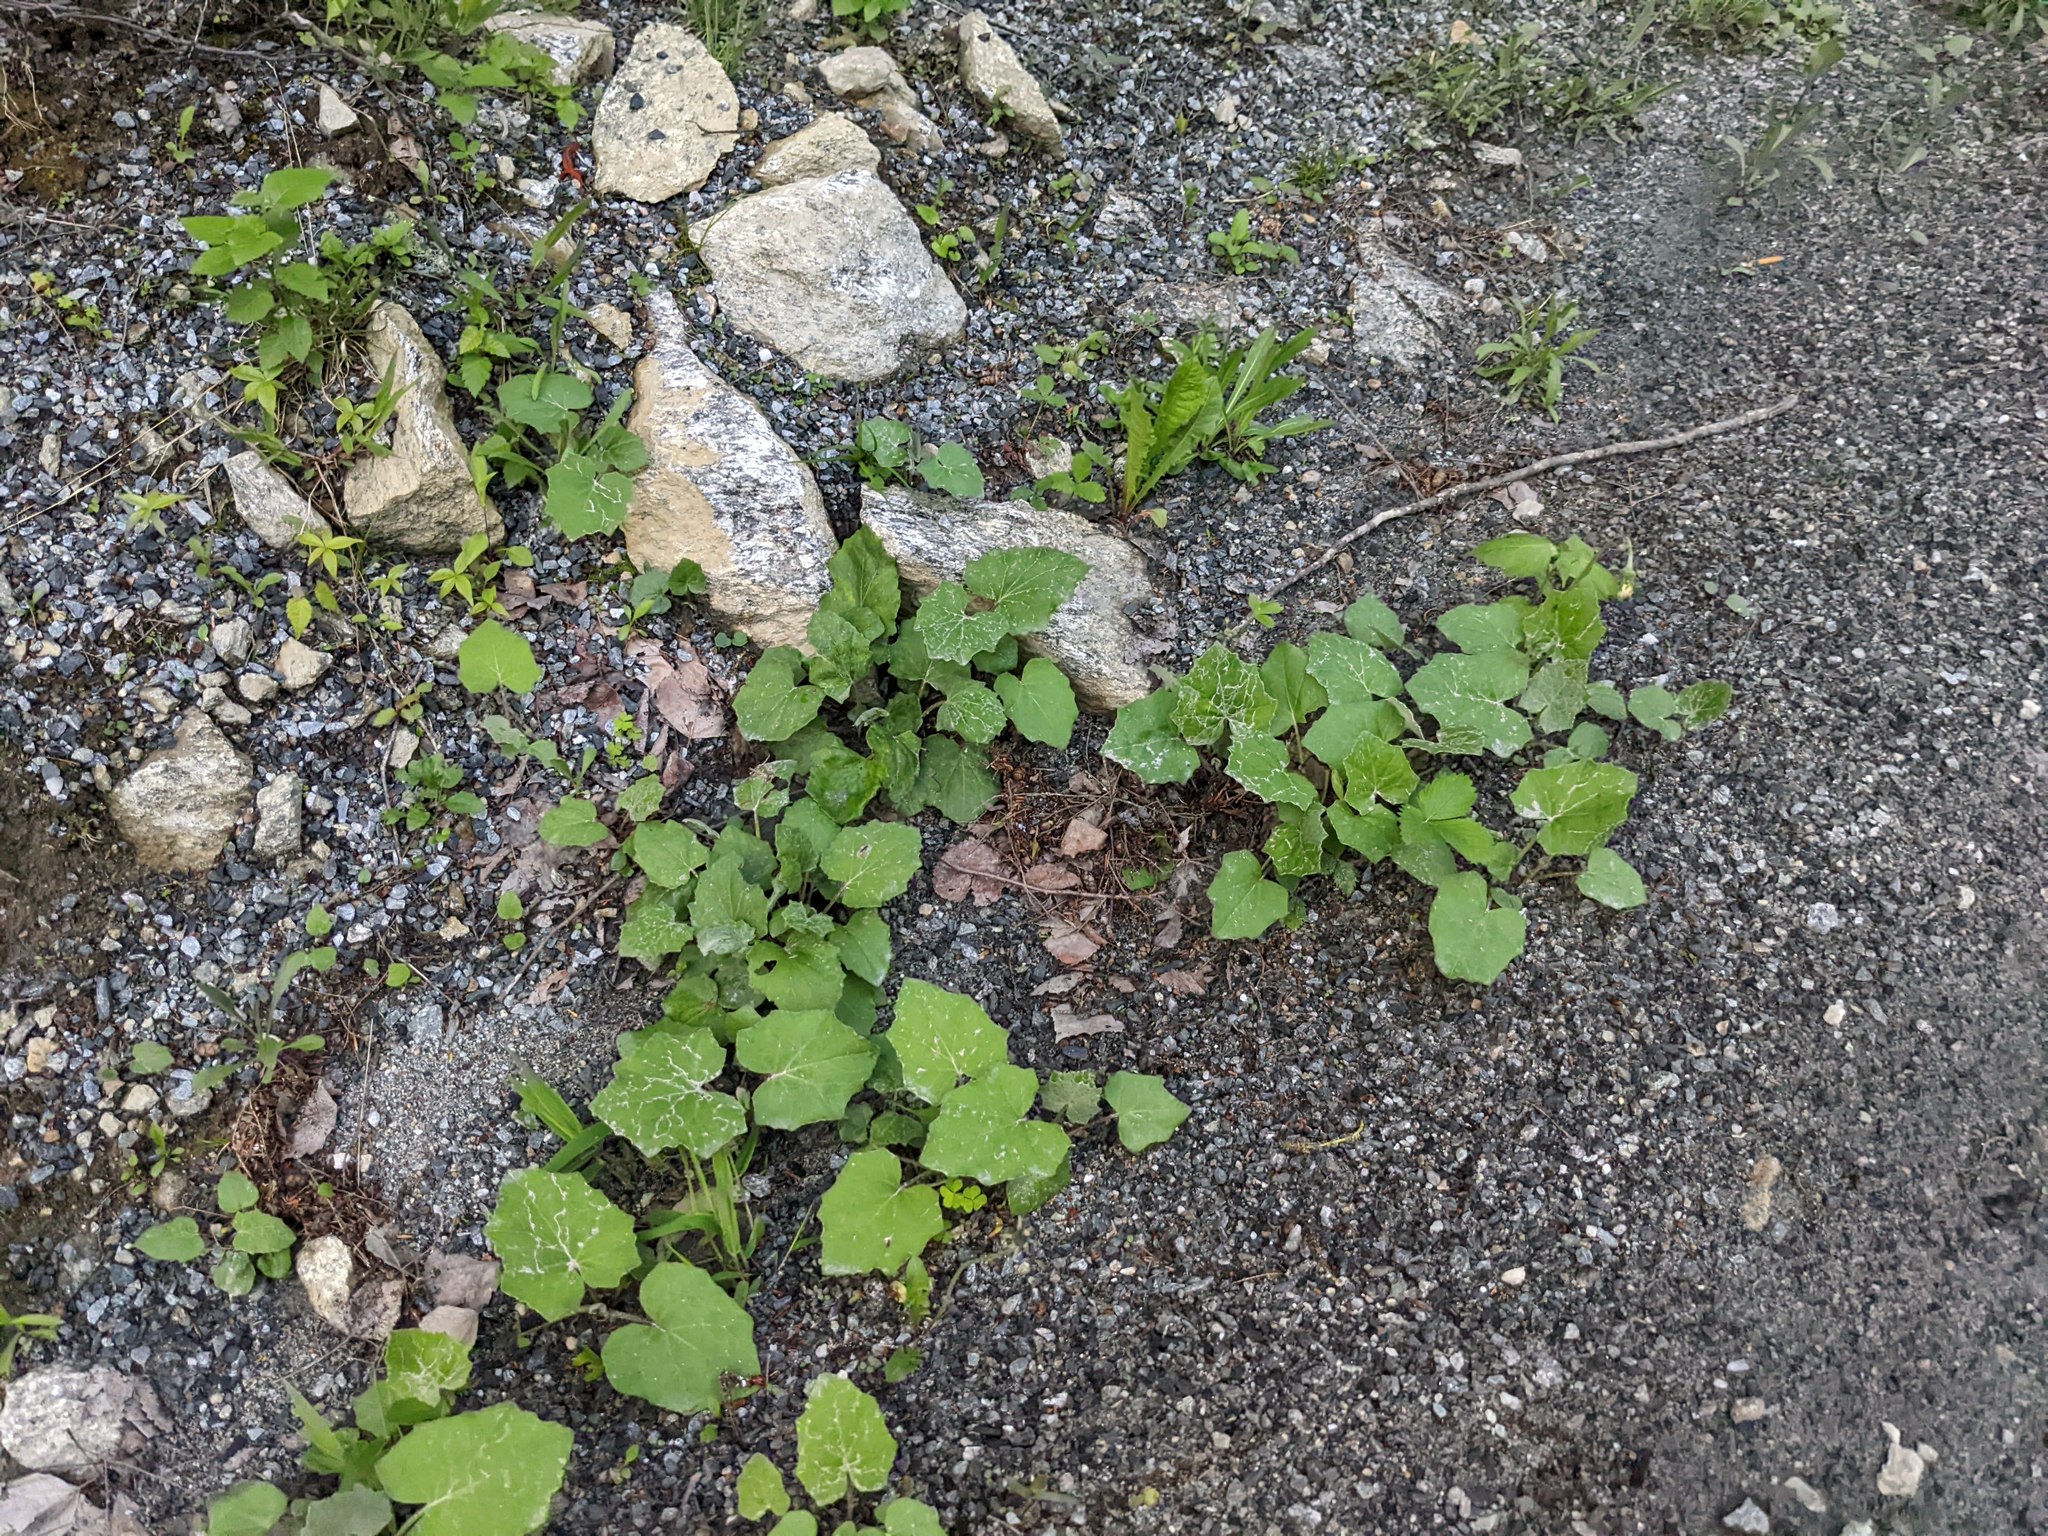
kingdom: Plantae
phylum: Tracheophyta
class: Magnoliopsida
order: Asterales
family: Asteraceae
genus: Tussilago
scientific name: Tussilago farfara
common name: Coltsfoot
